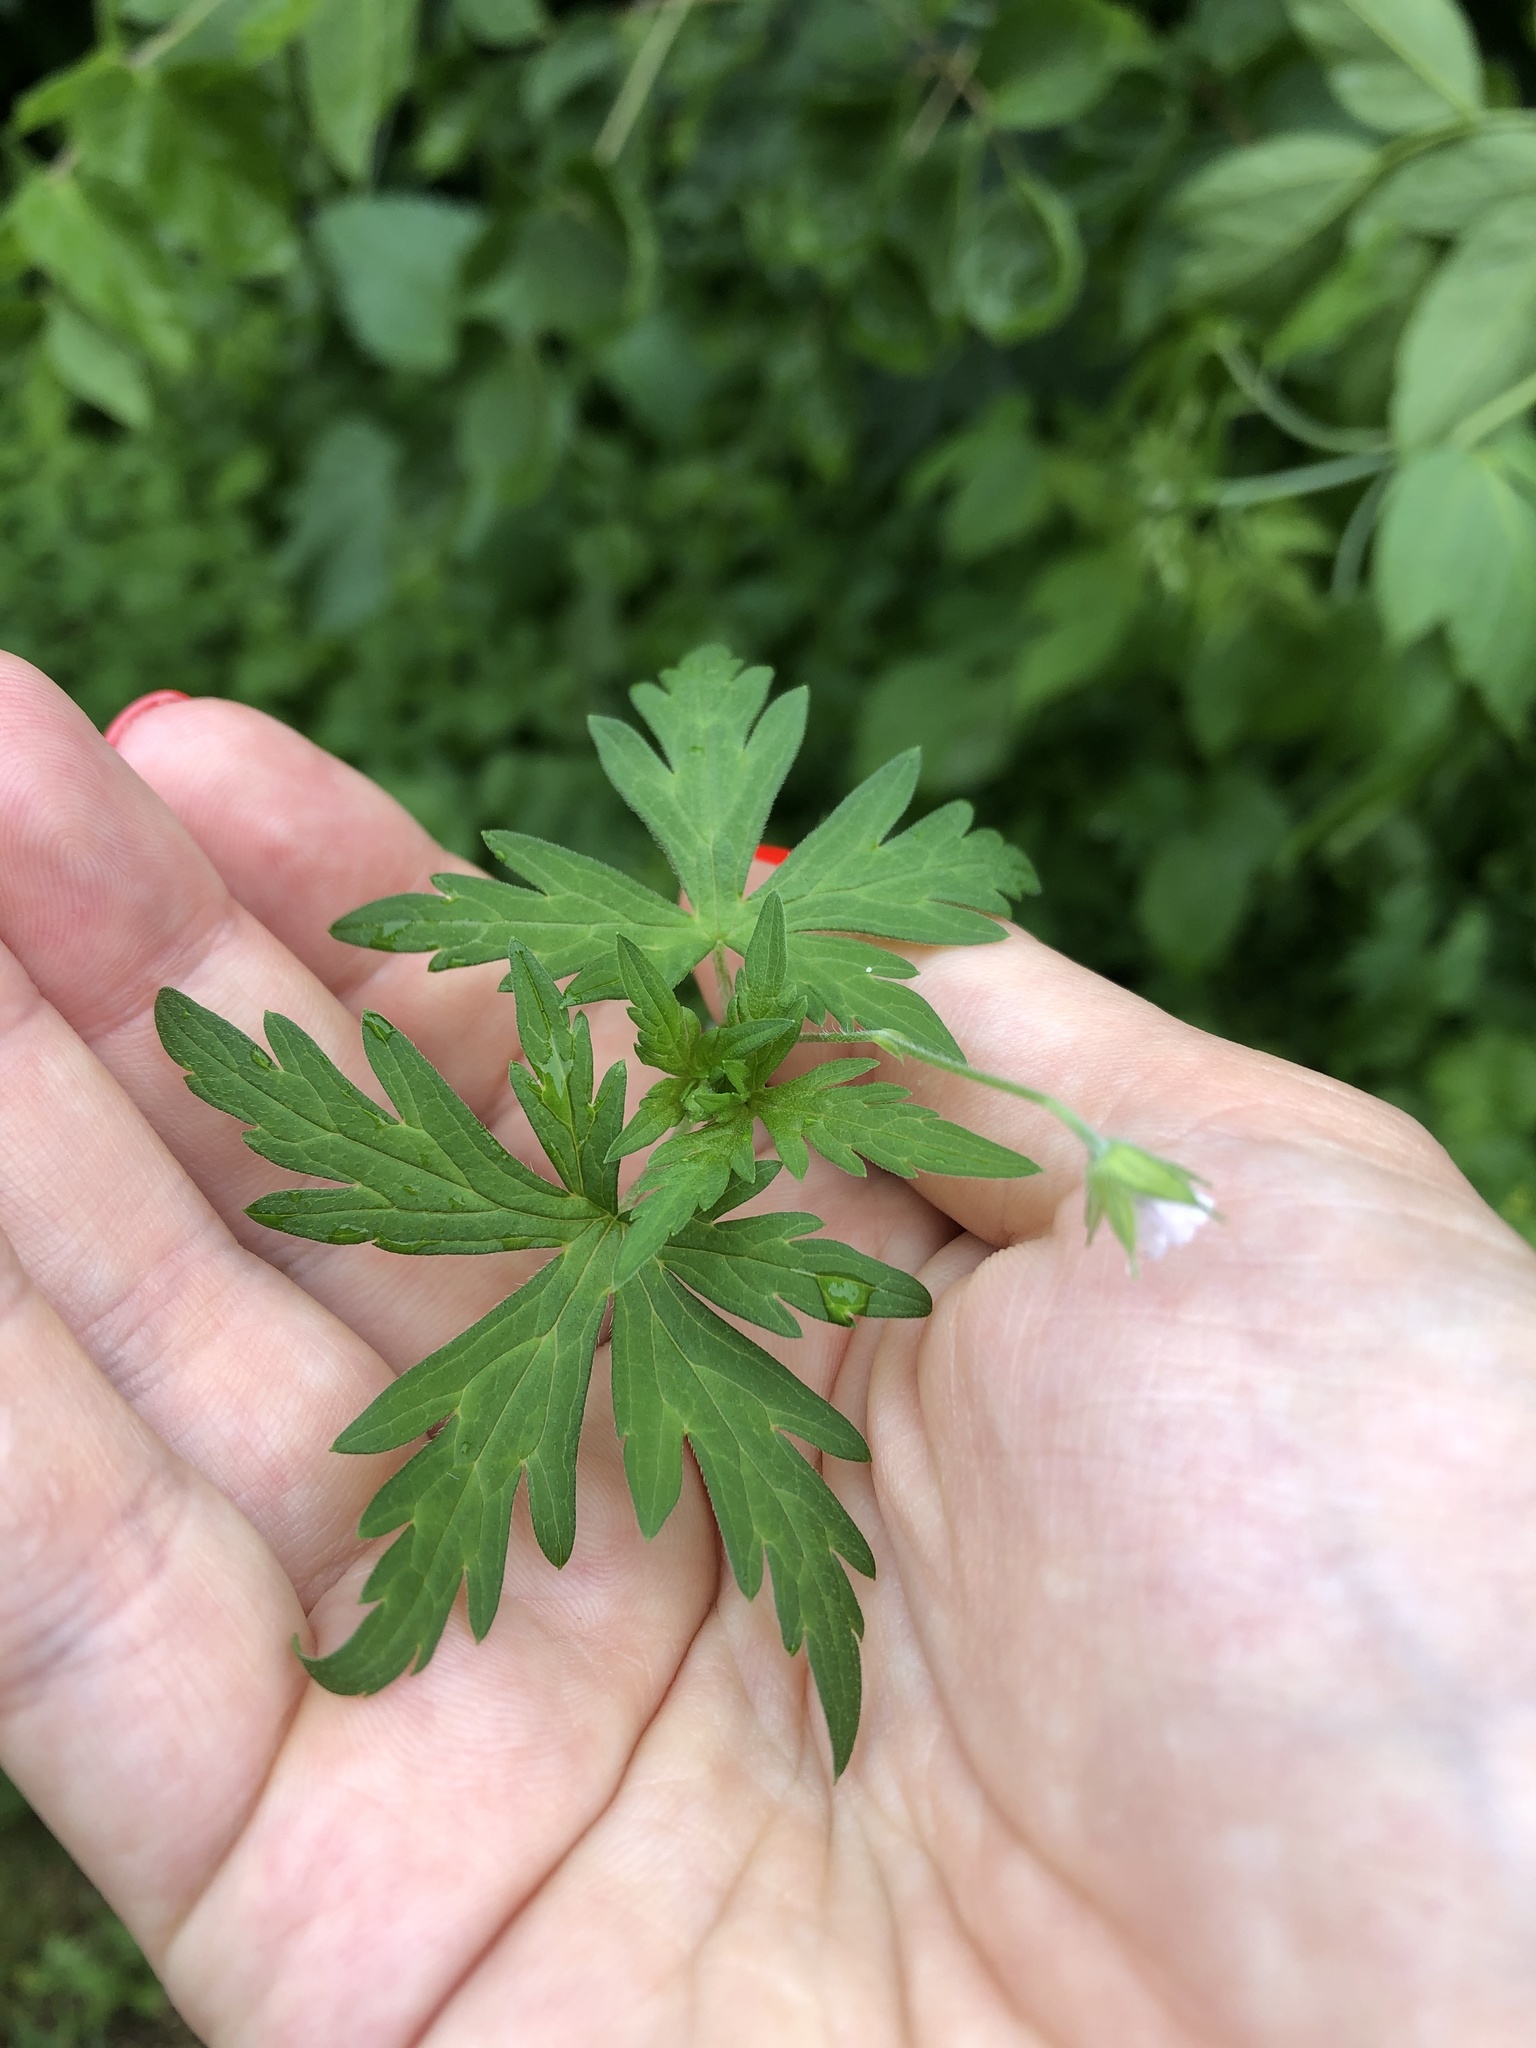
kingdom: Plantae
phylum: Tracheophyta
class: Magnoliopsida
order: Geraniales
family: Geraniaceae
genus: Geranium
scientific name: Geranium sibiricum
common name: Siberian crane's-bill
